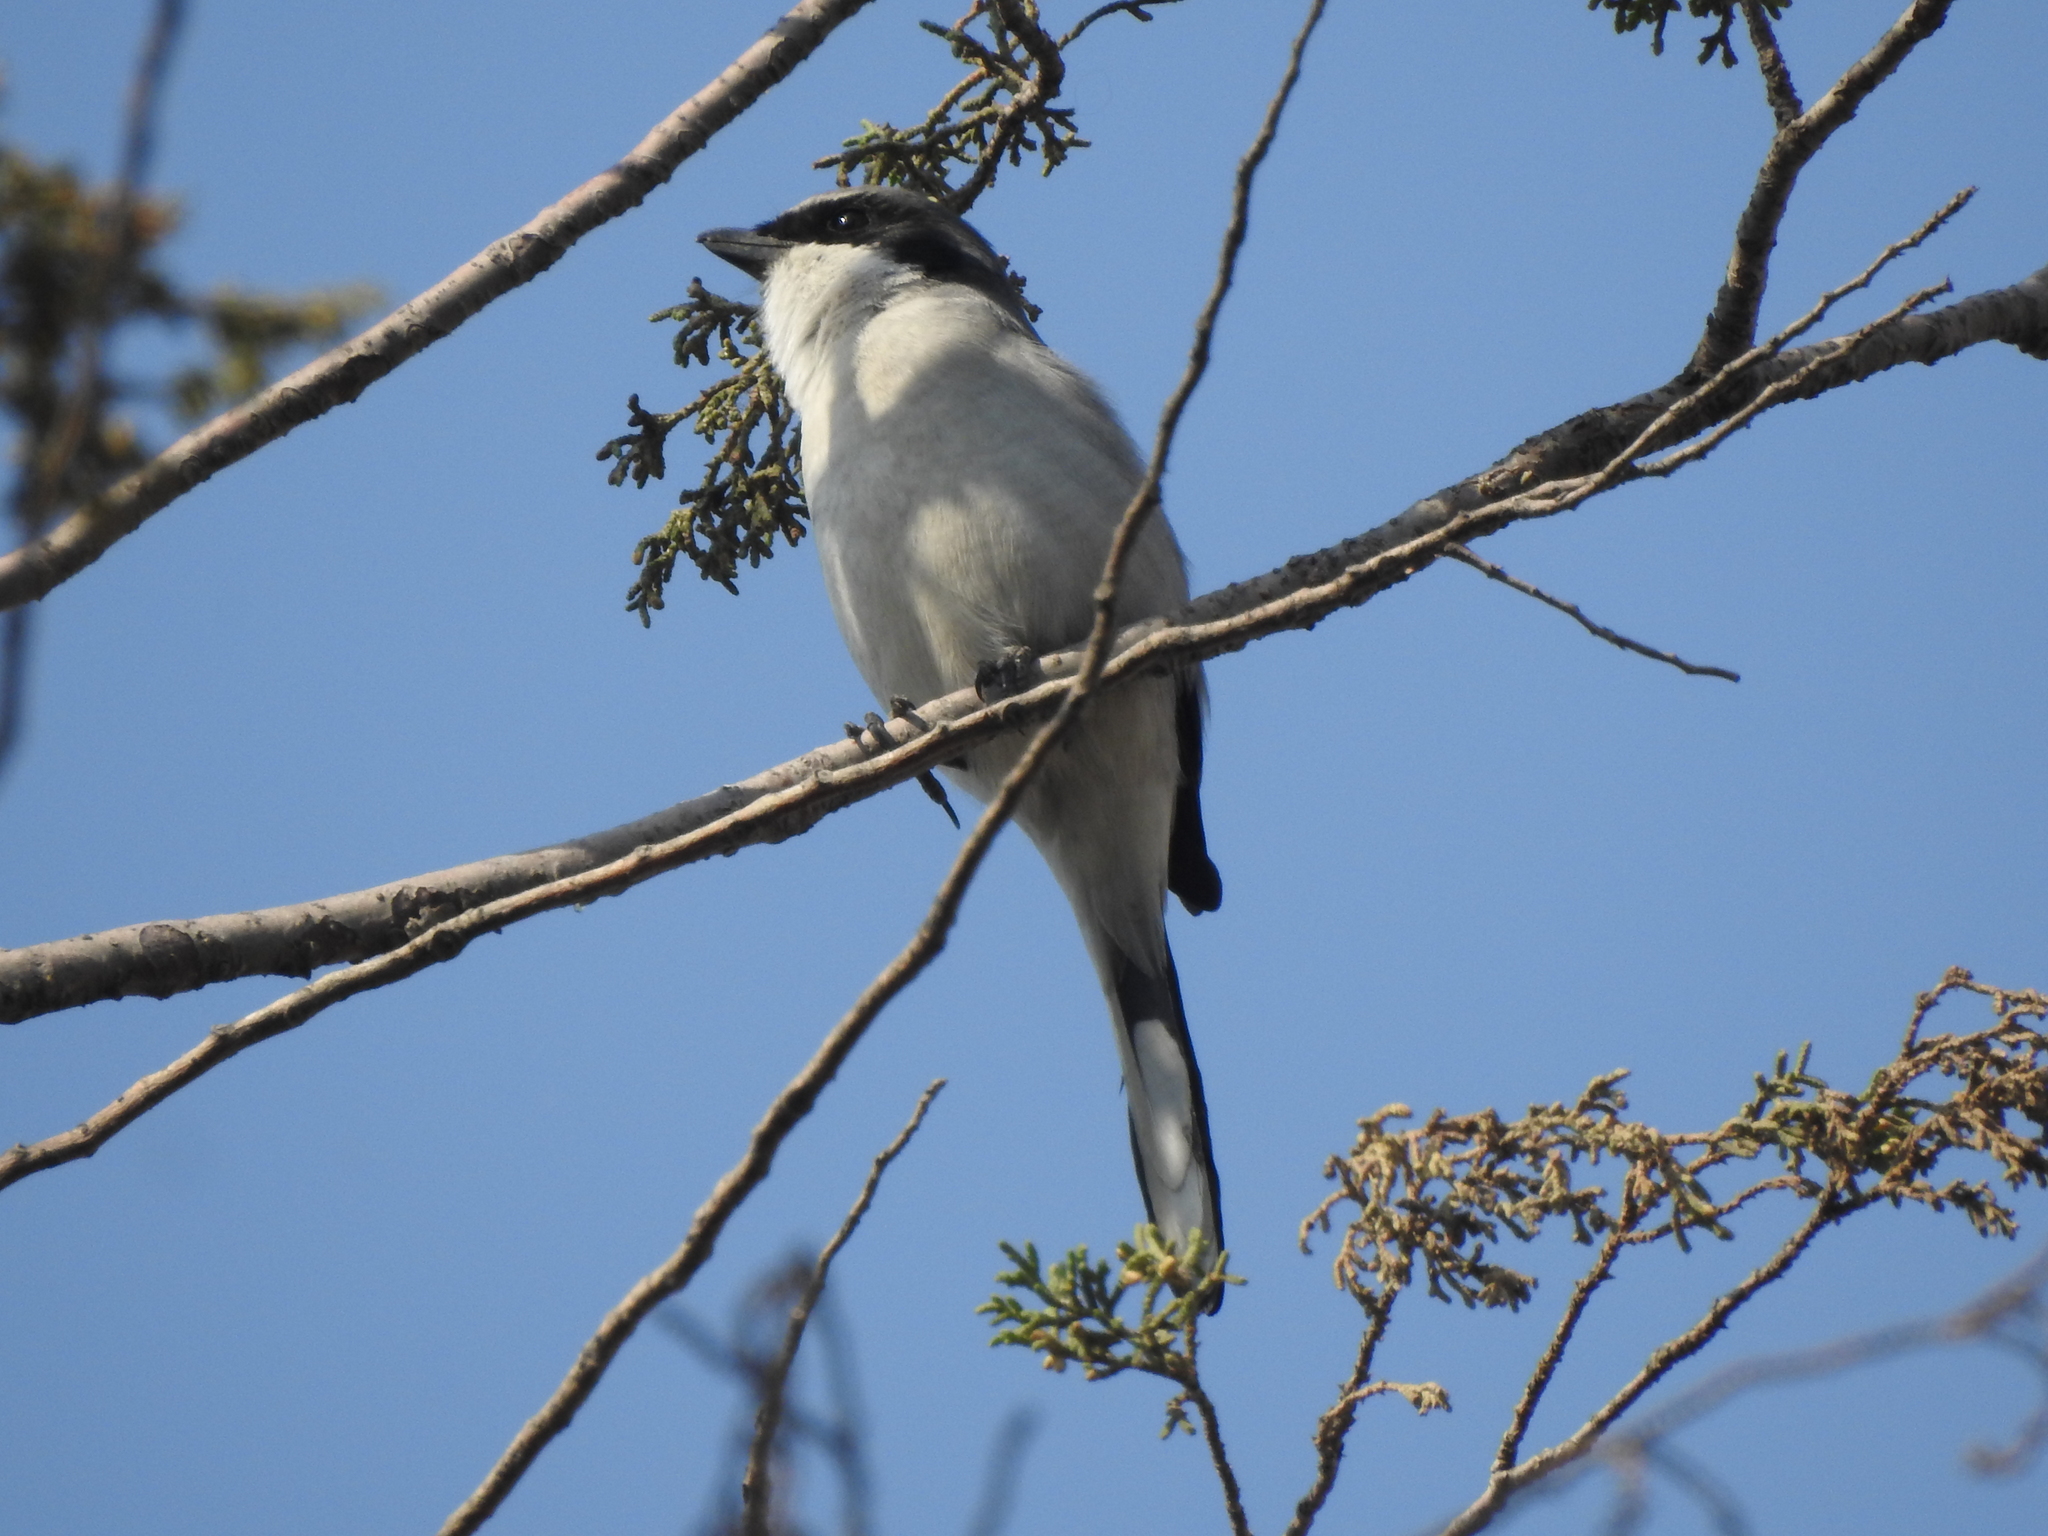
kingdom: Animalia
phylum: Chordata
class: Aves
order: Passeriformes
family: Laniidae
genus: Lanius
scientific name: Lanius ludovicianus
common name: Loggerhead shrike
